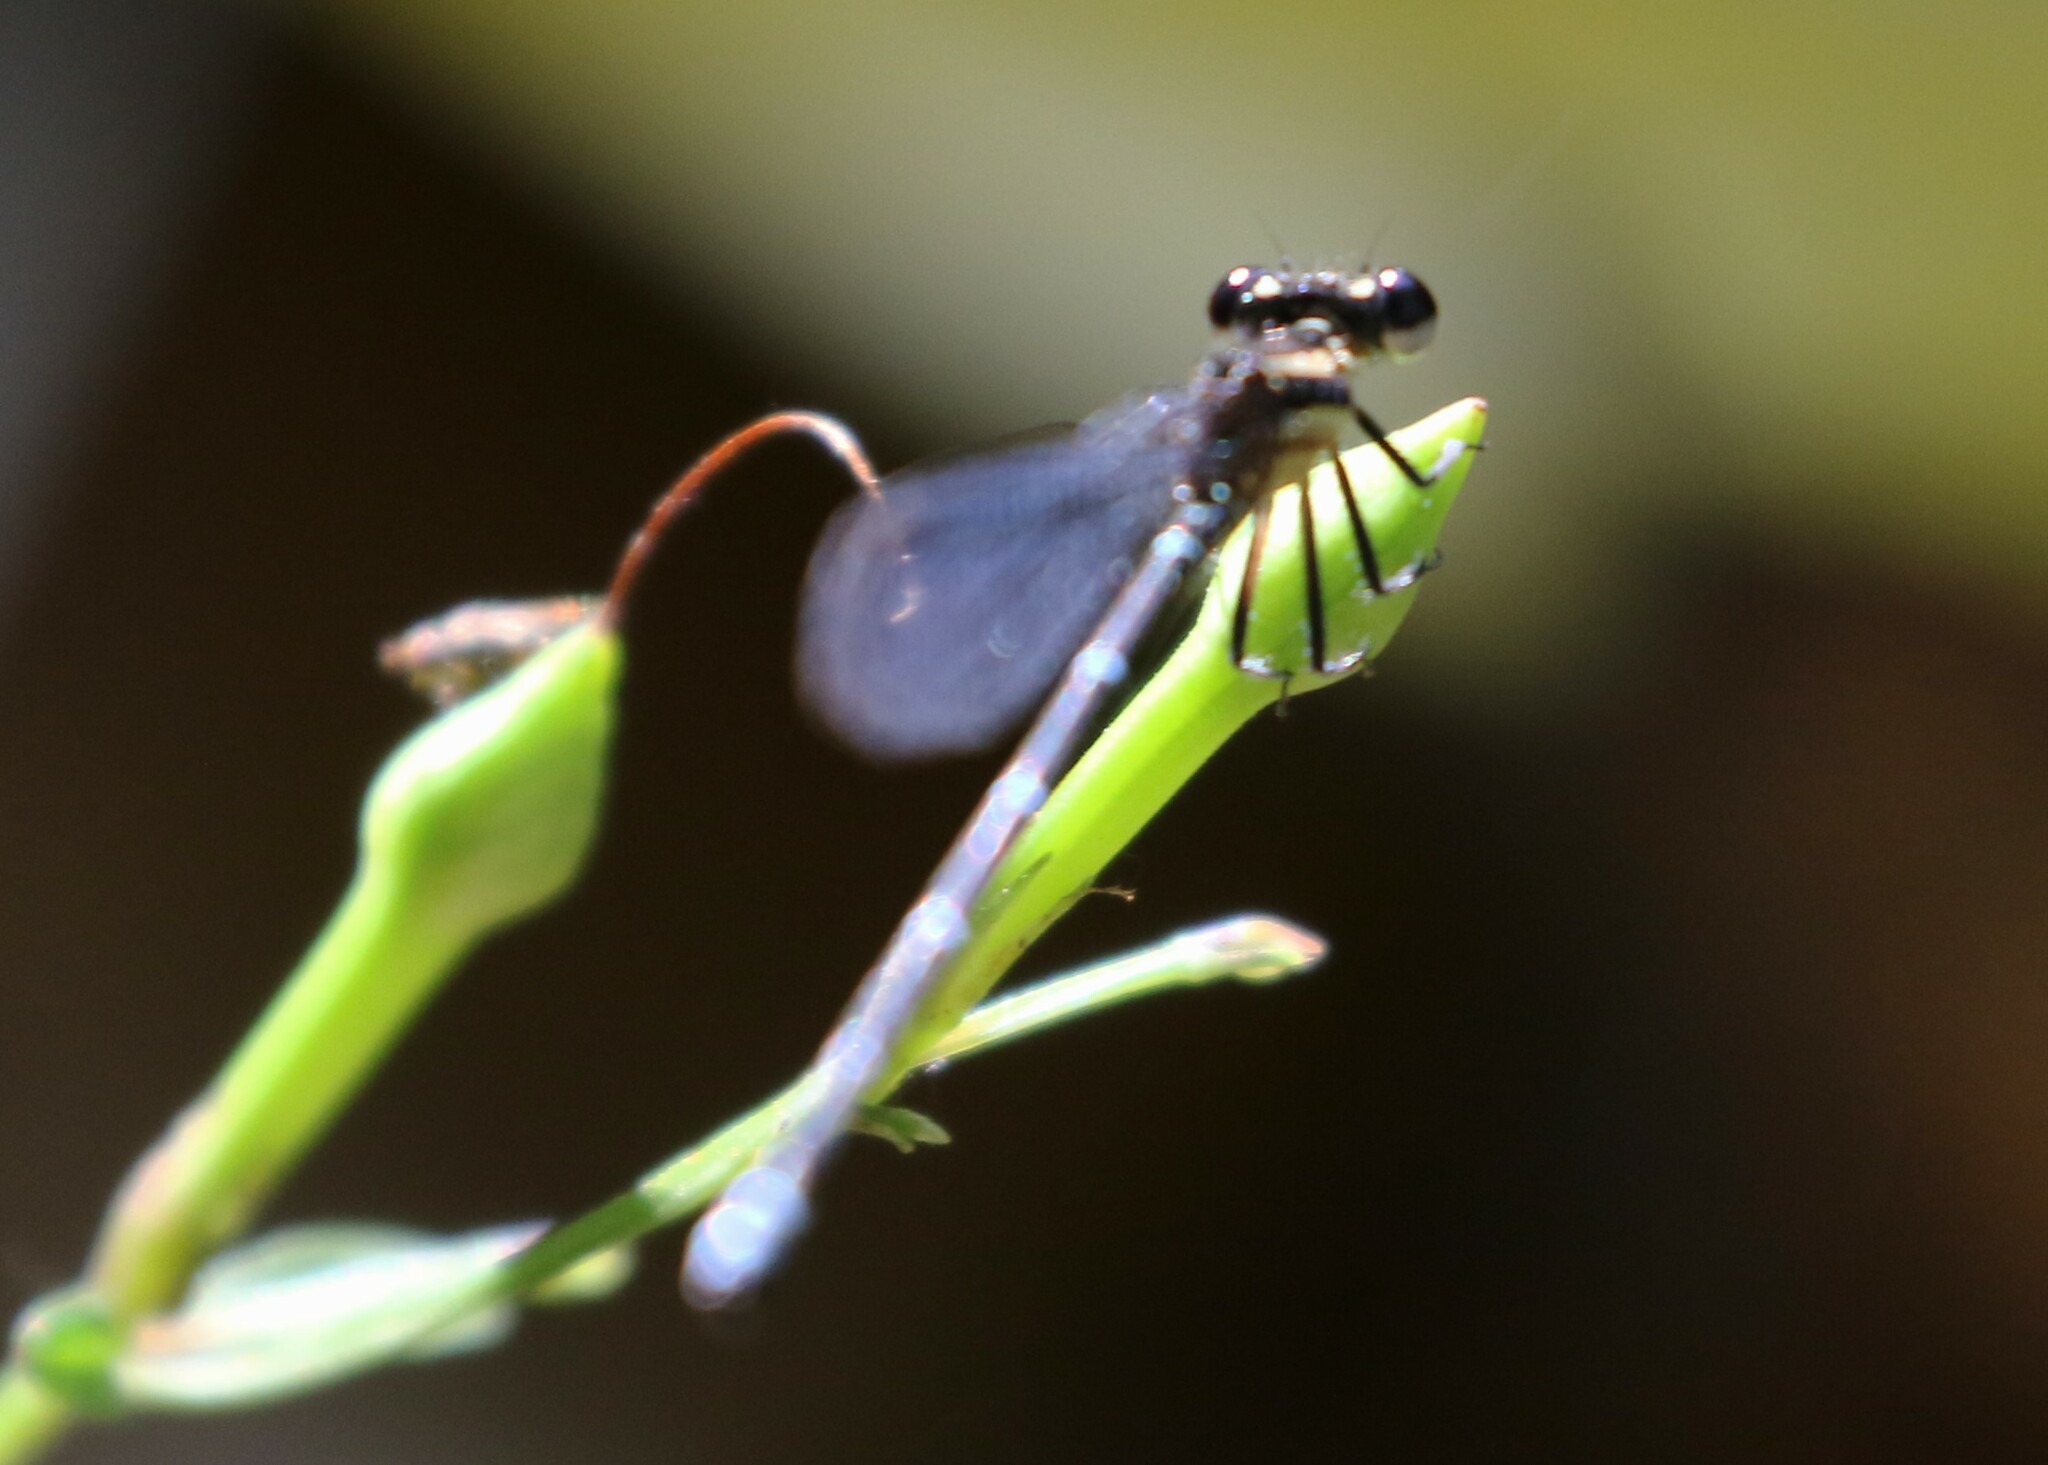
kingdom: Animalia
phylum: Arthropoda
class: Insecta
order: Odonata
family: Coenagrionidae
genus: Argia
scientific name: Argia oculata
